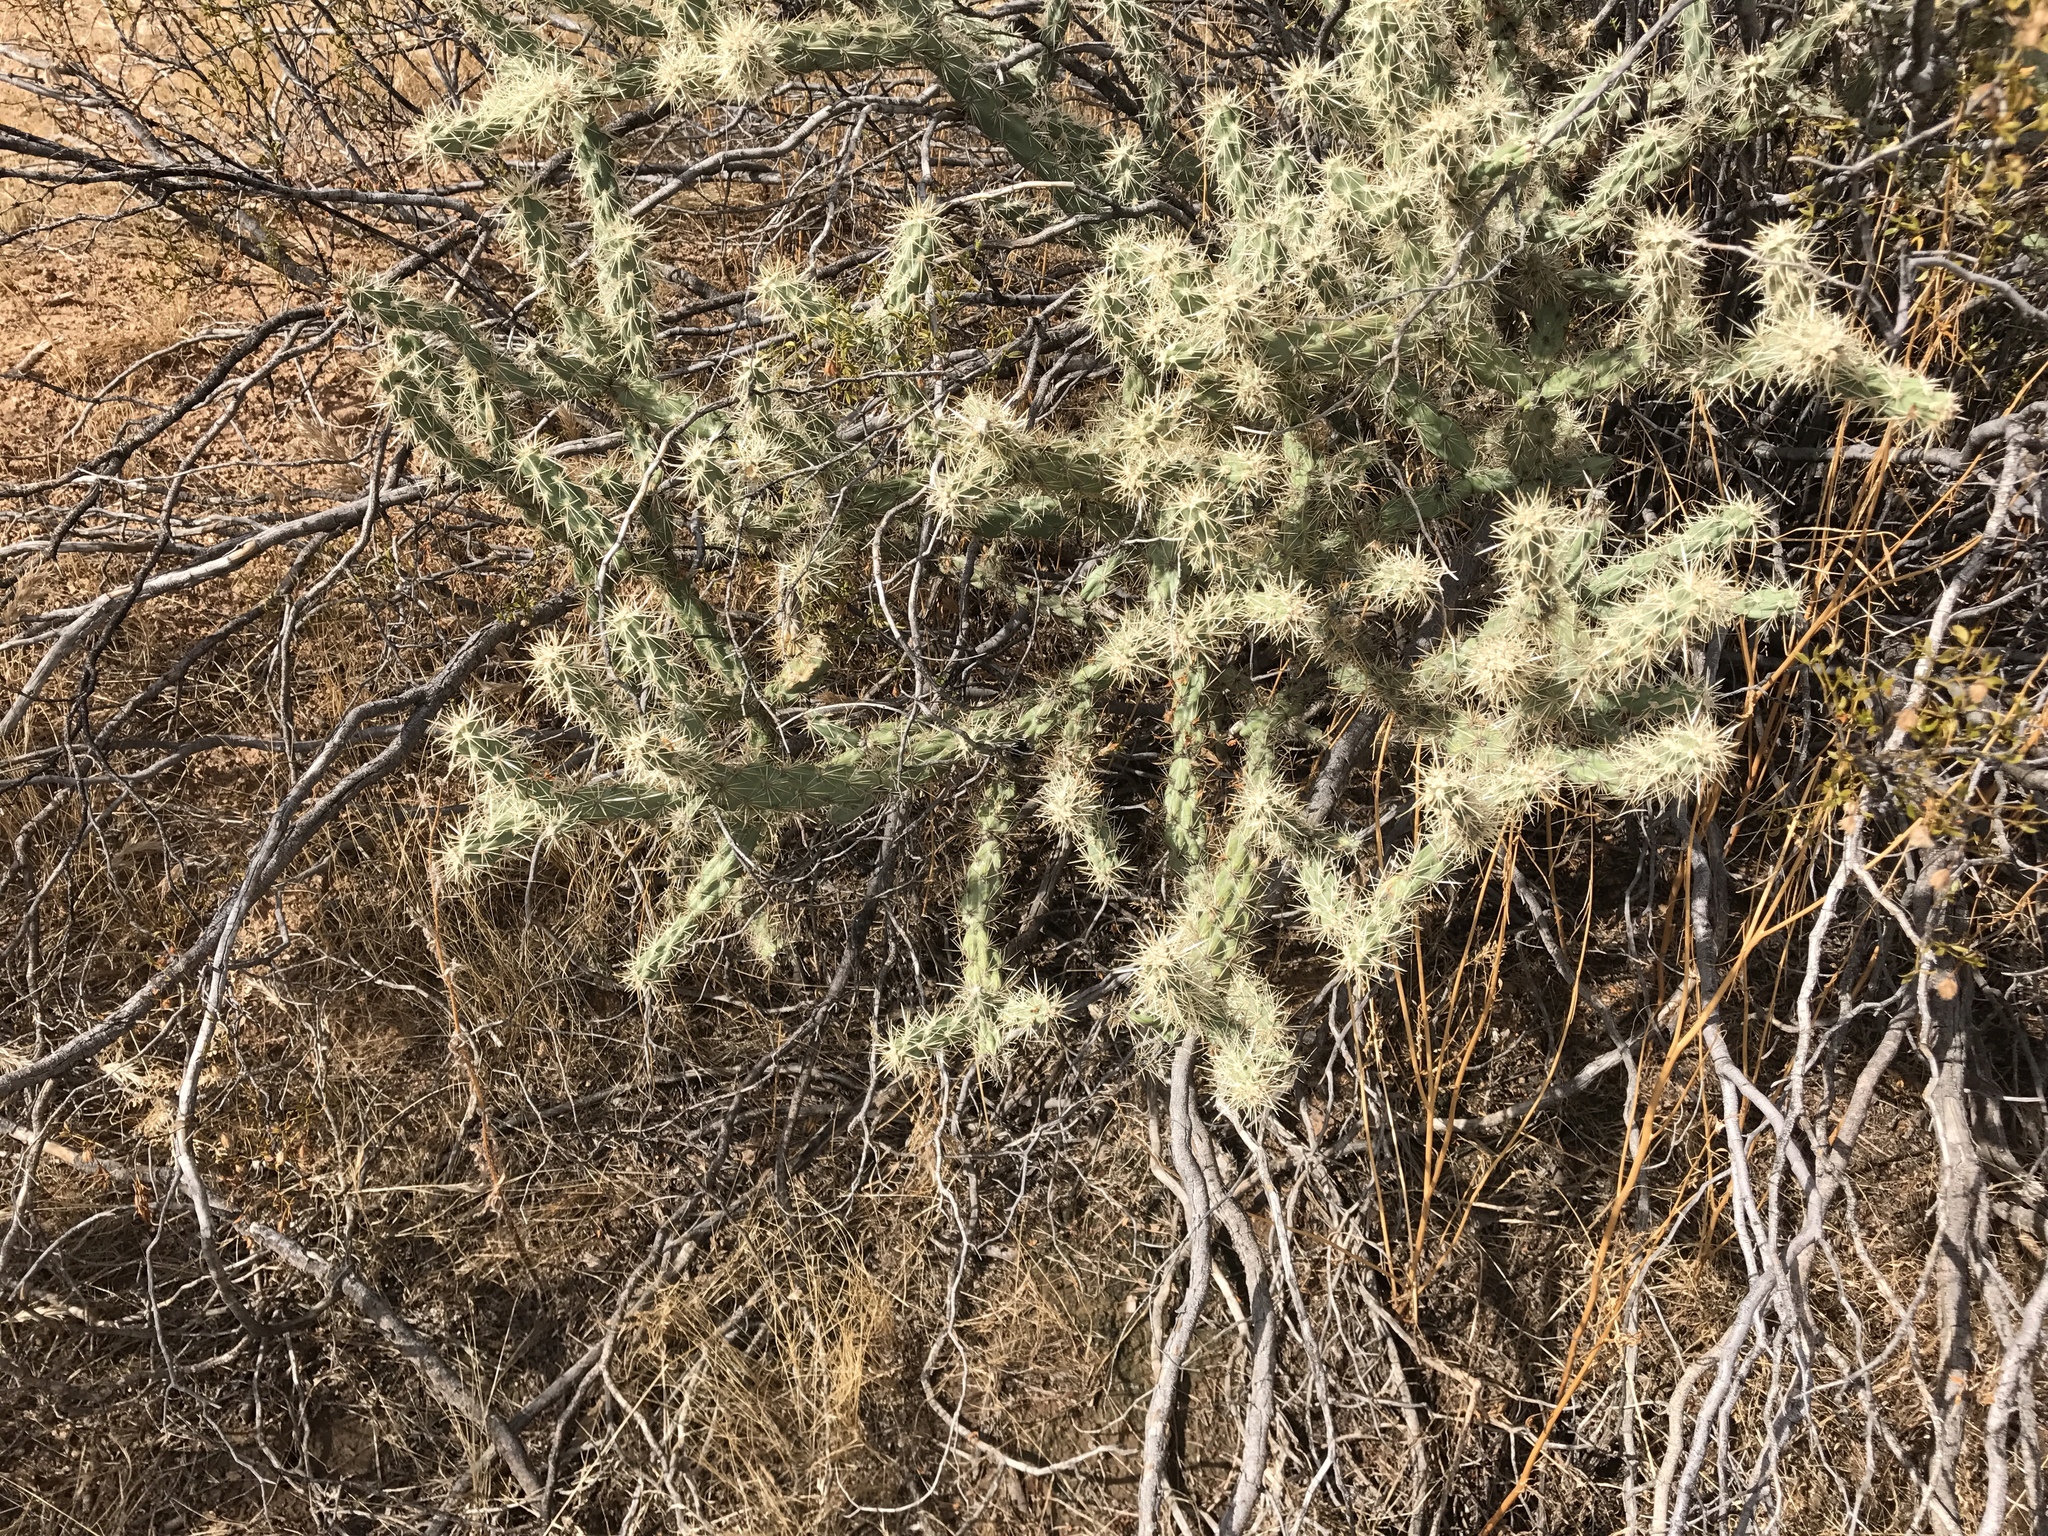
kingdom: Plantae
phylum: Tracheophyta
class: Magnoliopsida
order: Caryophyllales
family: Cactaceae
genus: Cylindropuntia
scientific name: Cylindropuntia acanthocarpa
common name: Buckhorn cholla
